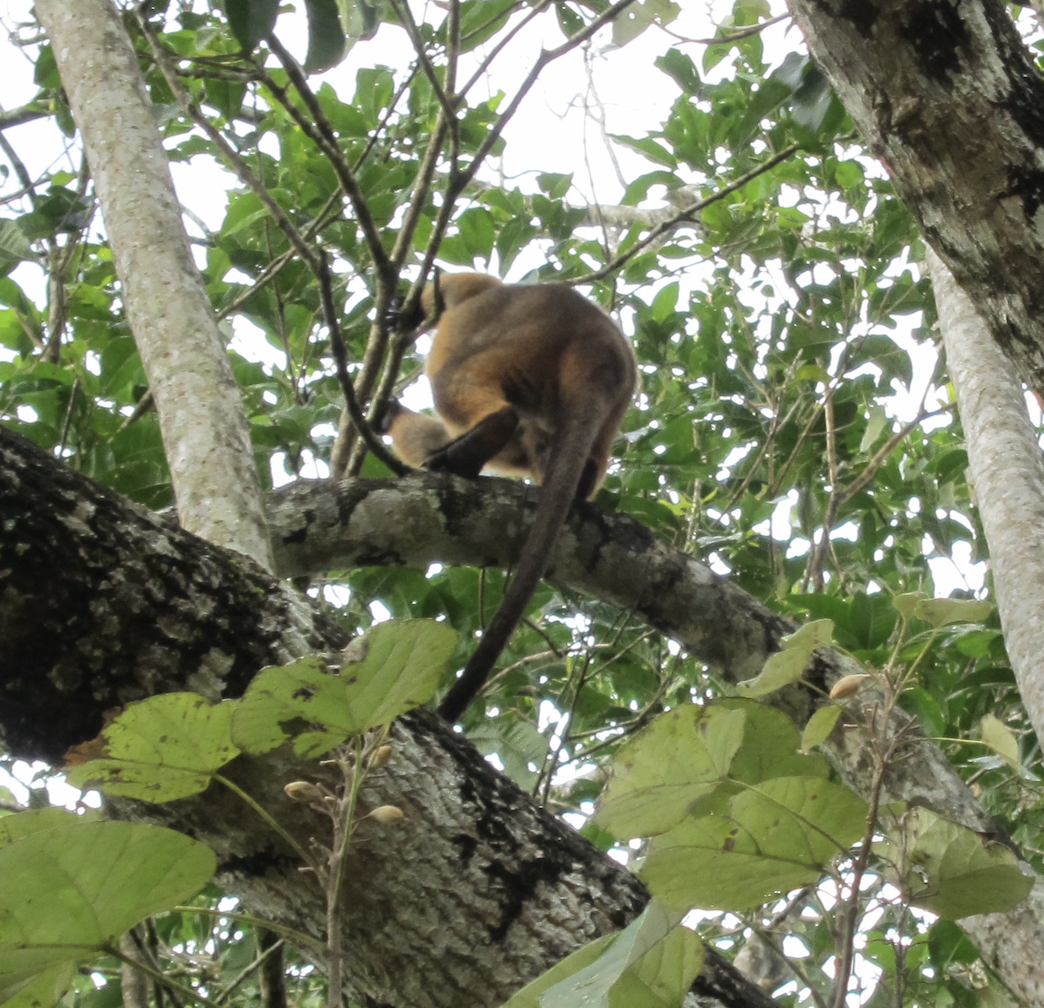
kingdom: Animalia
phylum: Chordata
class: Mammalia
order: Diprotodontia
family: Macropodidae
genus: Dendrolagus
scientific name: Dendrolagus lumholtzi
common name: Lumholtz's tree kangaroo
